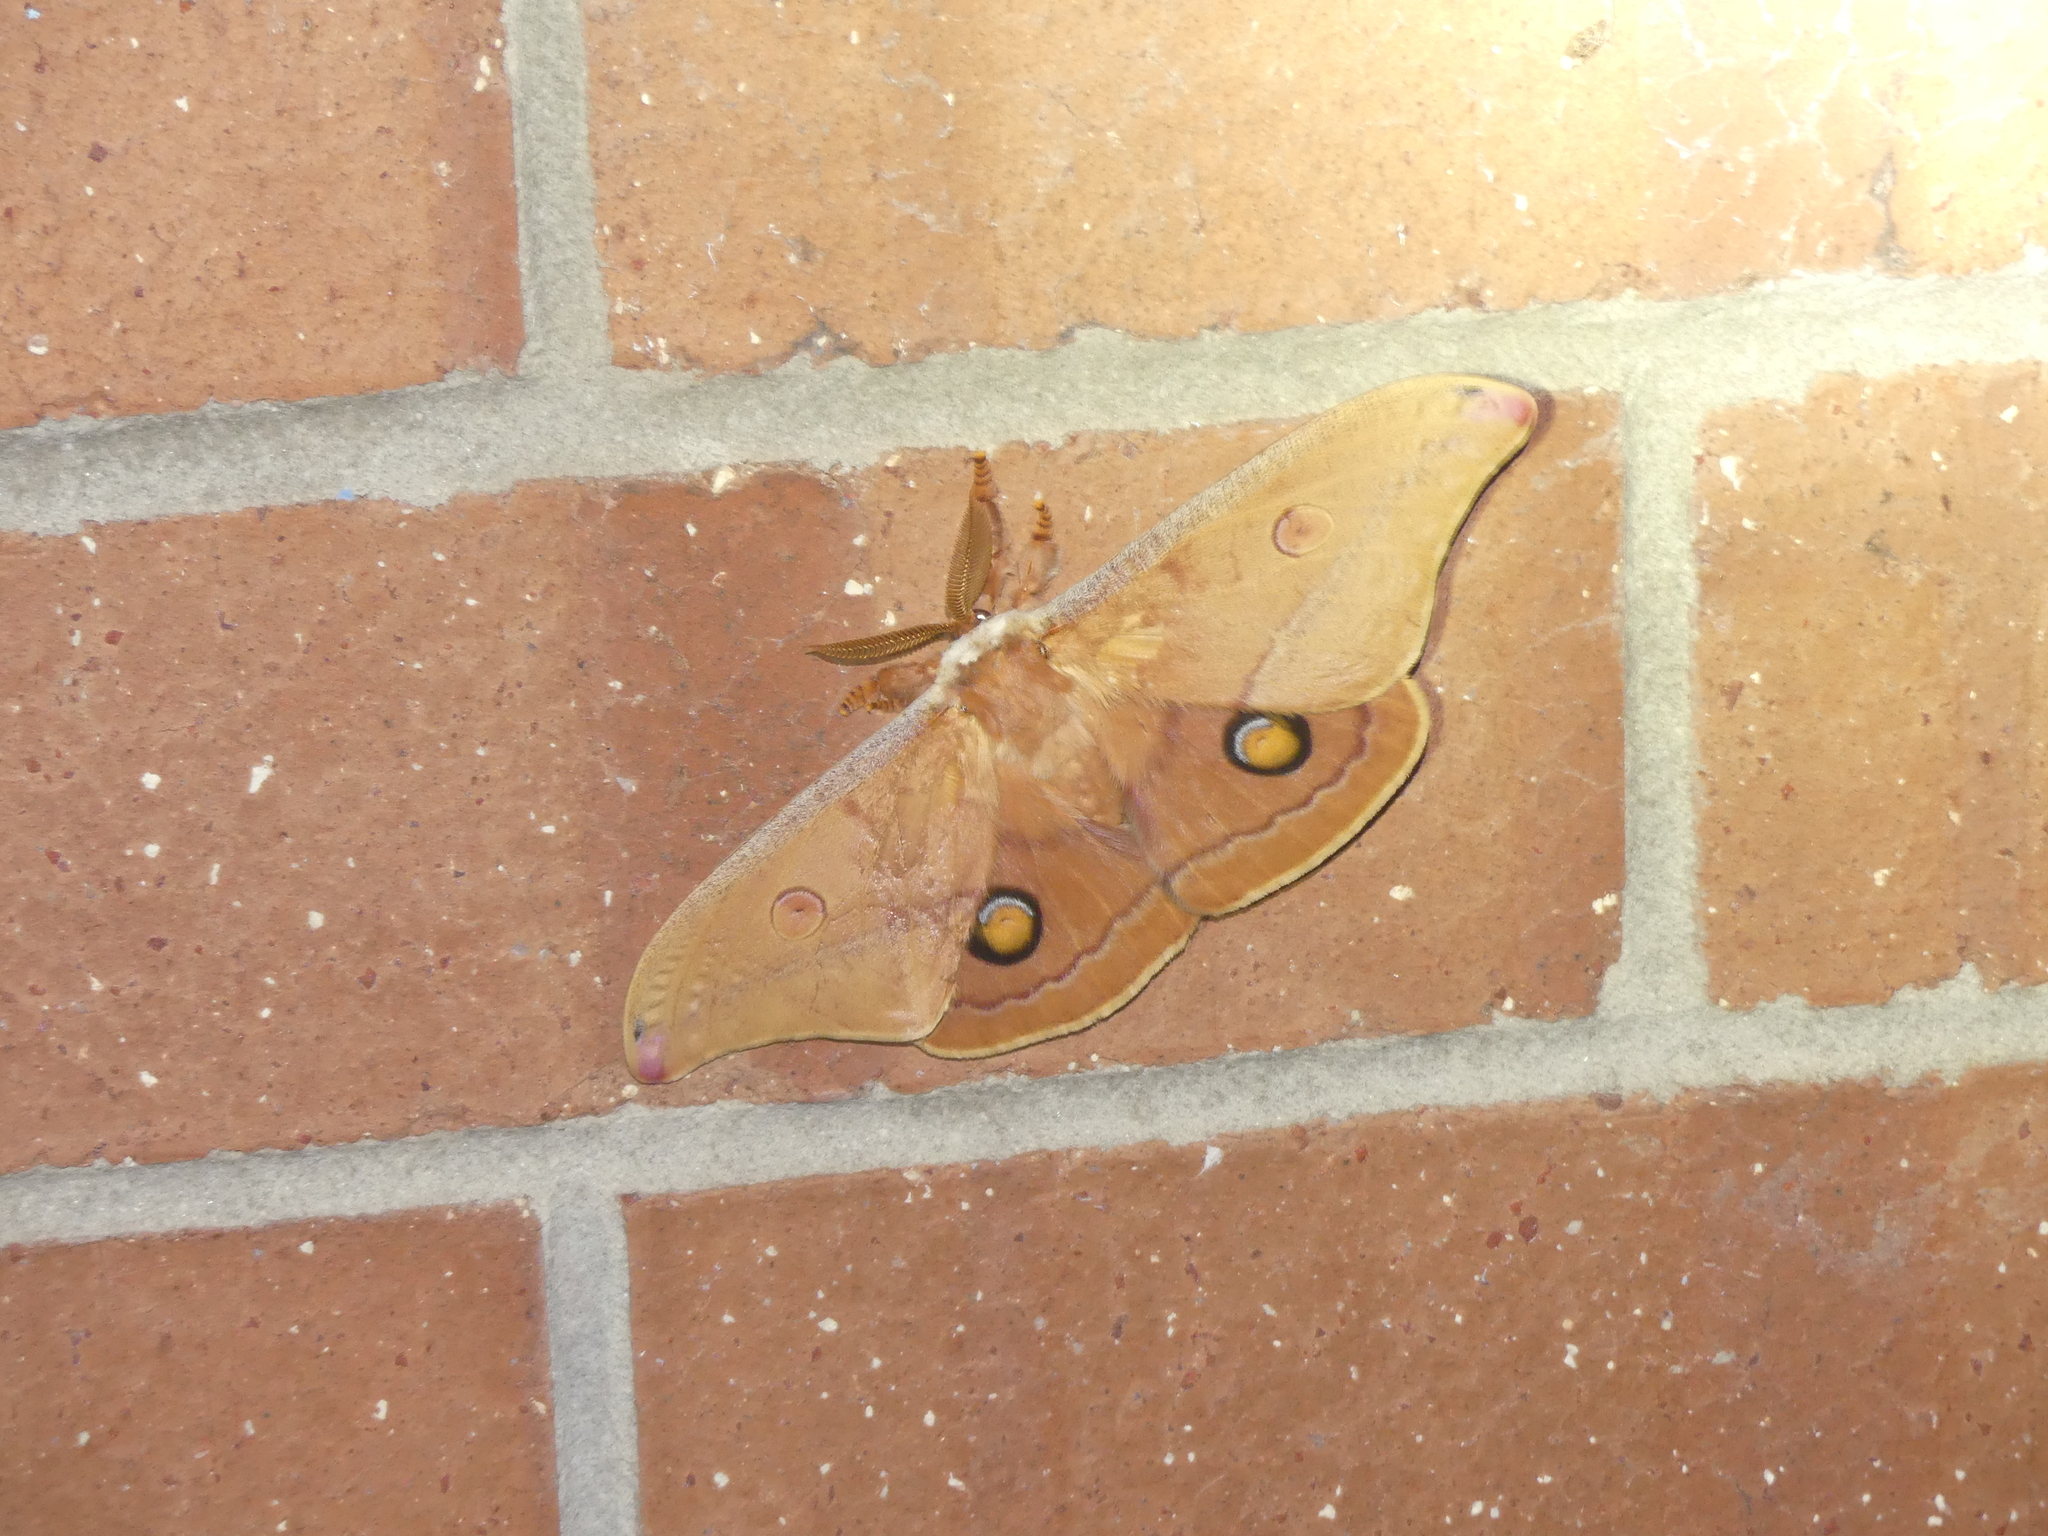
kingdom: Animalia
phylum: Arthropoda
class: Insecta
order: Lepidoptera
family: Saturniidae
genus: Opodiphthera
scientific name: Opodiphthera
